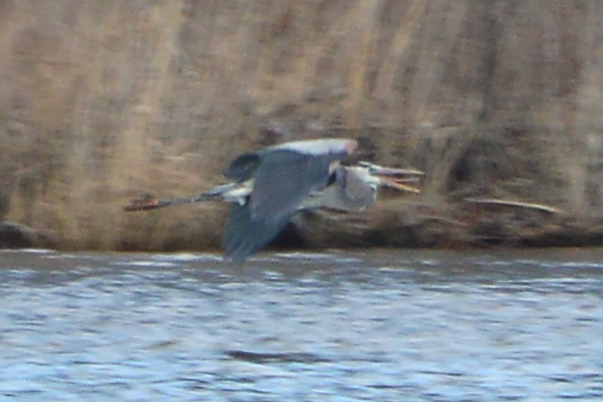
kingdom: Animalia
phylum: Chordata
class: Aves
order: Pelecaniformes
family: Ardeidae
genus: Ardea
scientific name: Ardea herodias
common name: Great blue heron
